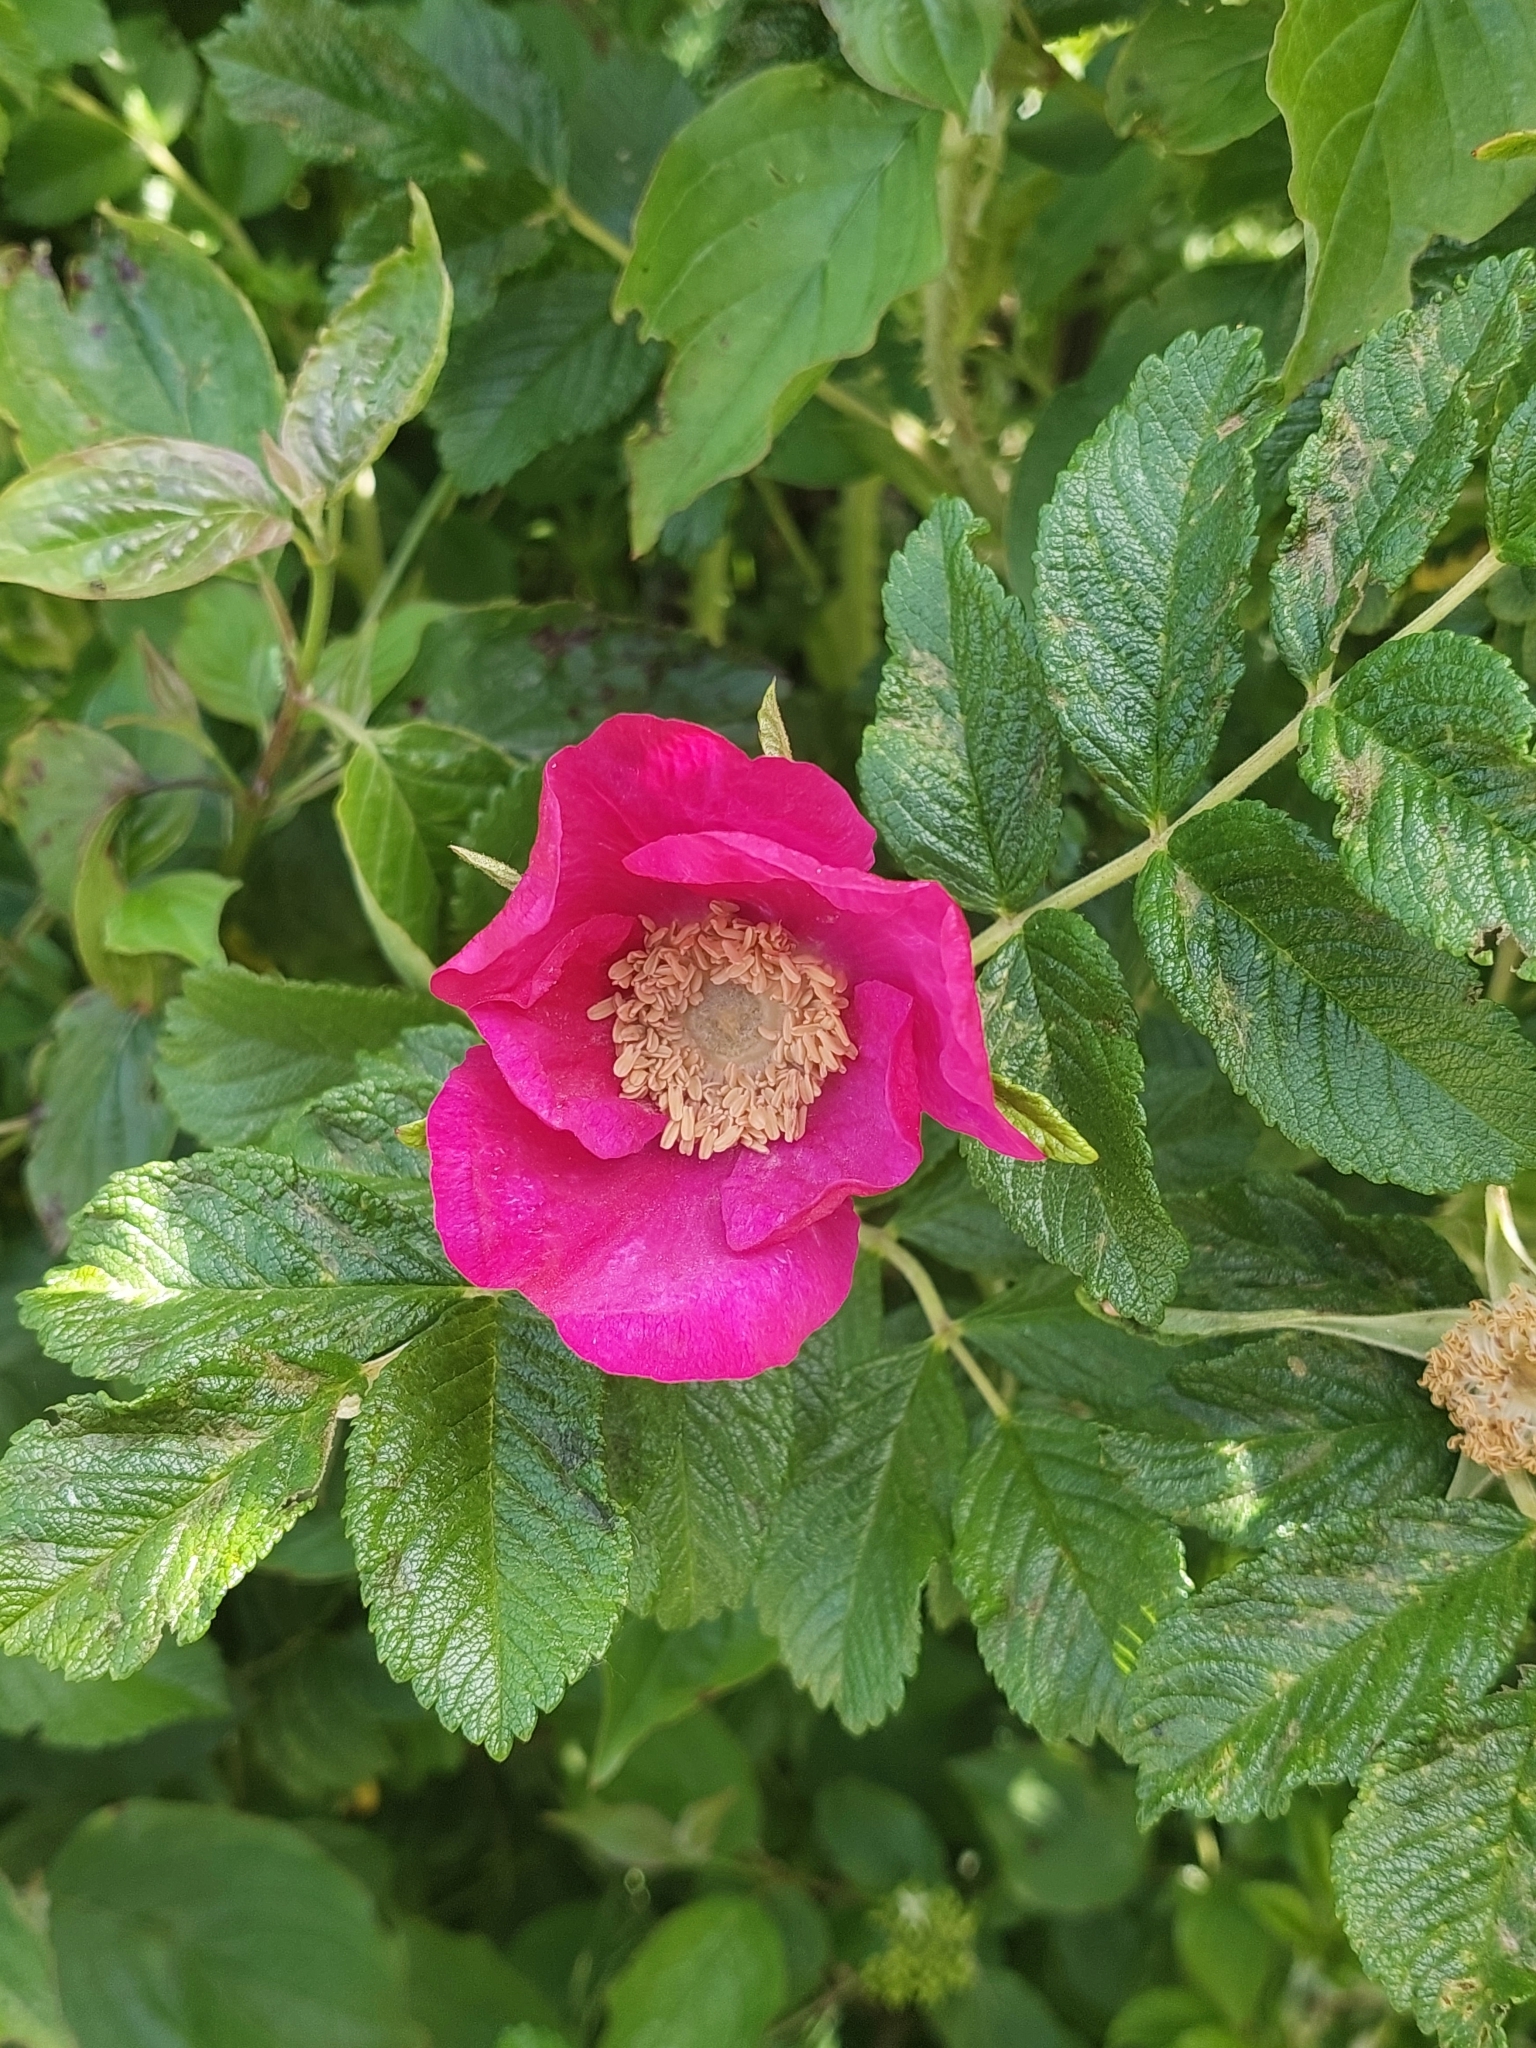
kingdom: Plantae
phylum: Tracheophyta
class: Magnoliopsida
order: Rosales
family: Rosaceae
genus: Rosa
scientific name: Rosa rugosa
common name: Japanese rose
